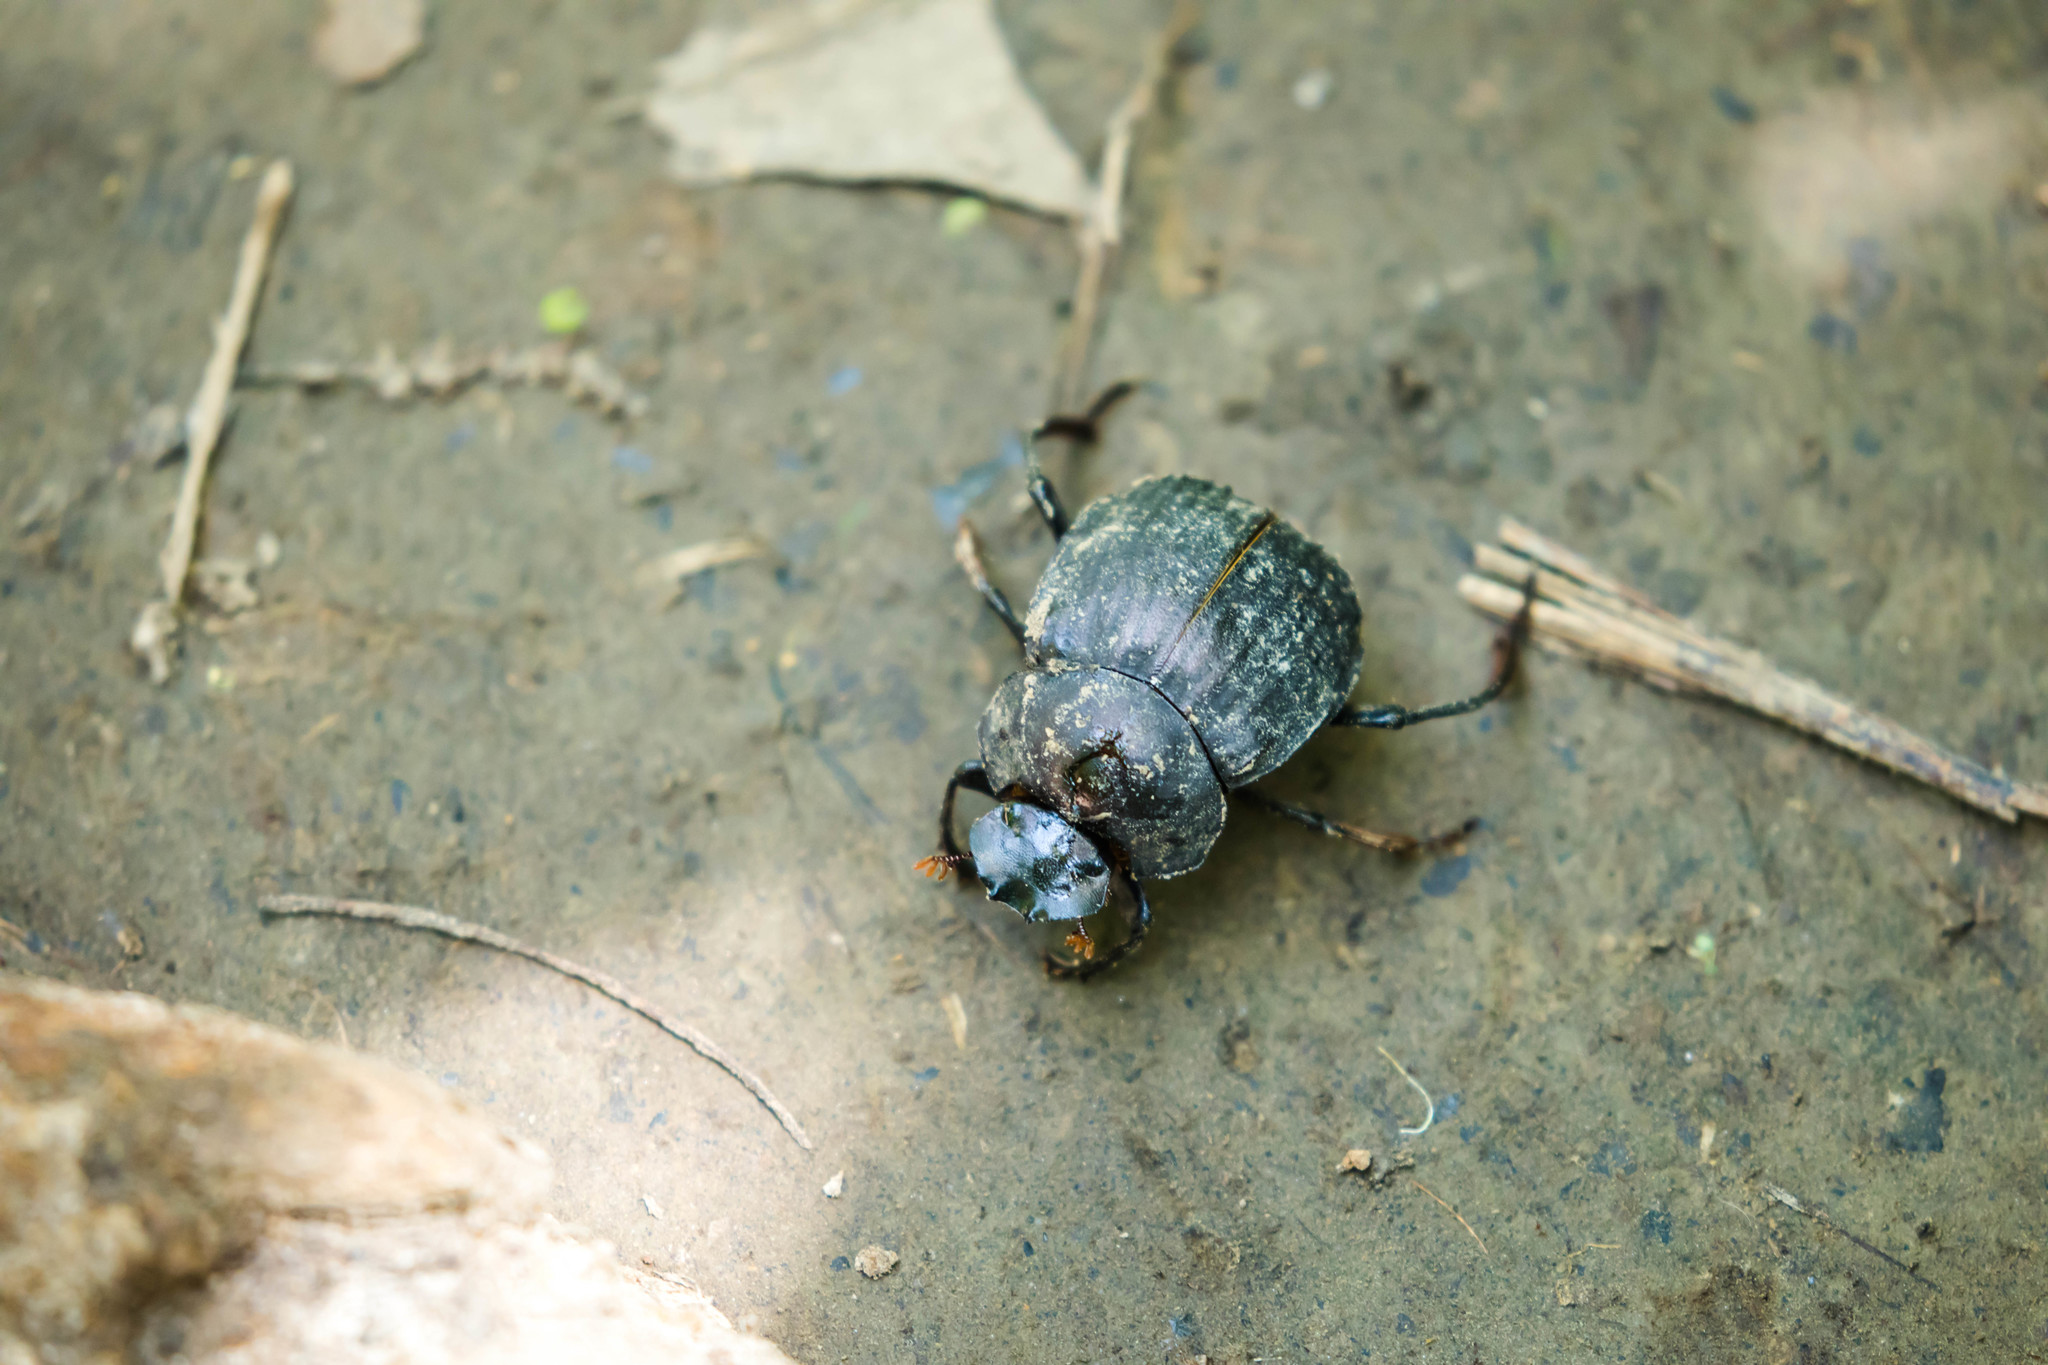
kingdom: Animalia
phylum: Arthropoda
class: Insecta
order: Coleoptera
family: Scarabaeidae
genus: Deltochilum
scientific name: Deltochilum gibbosum
